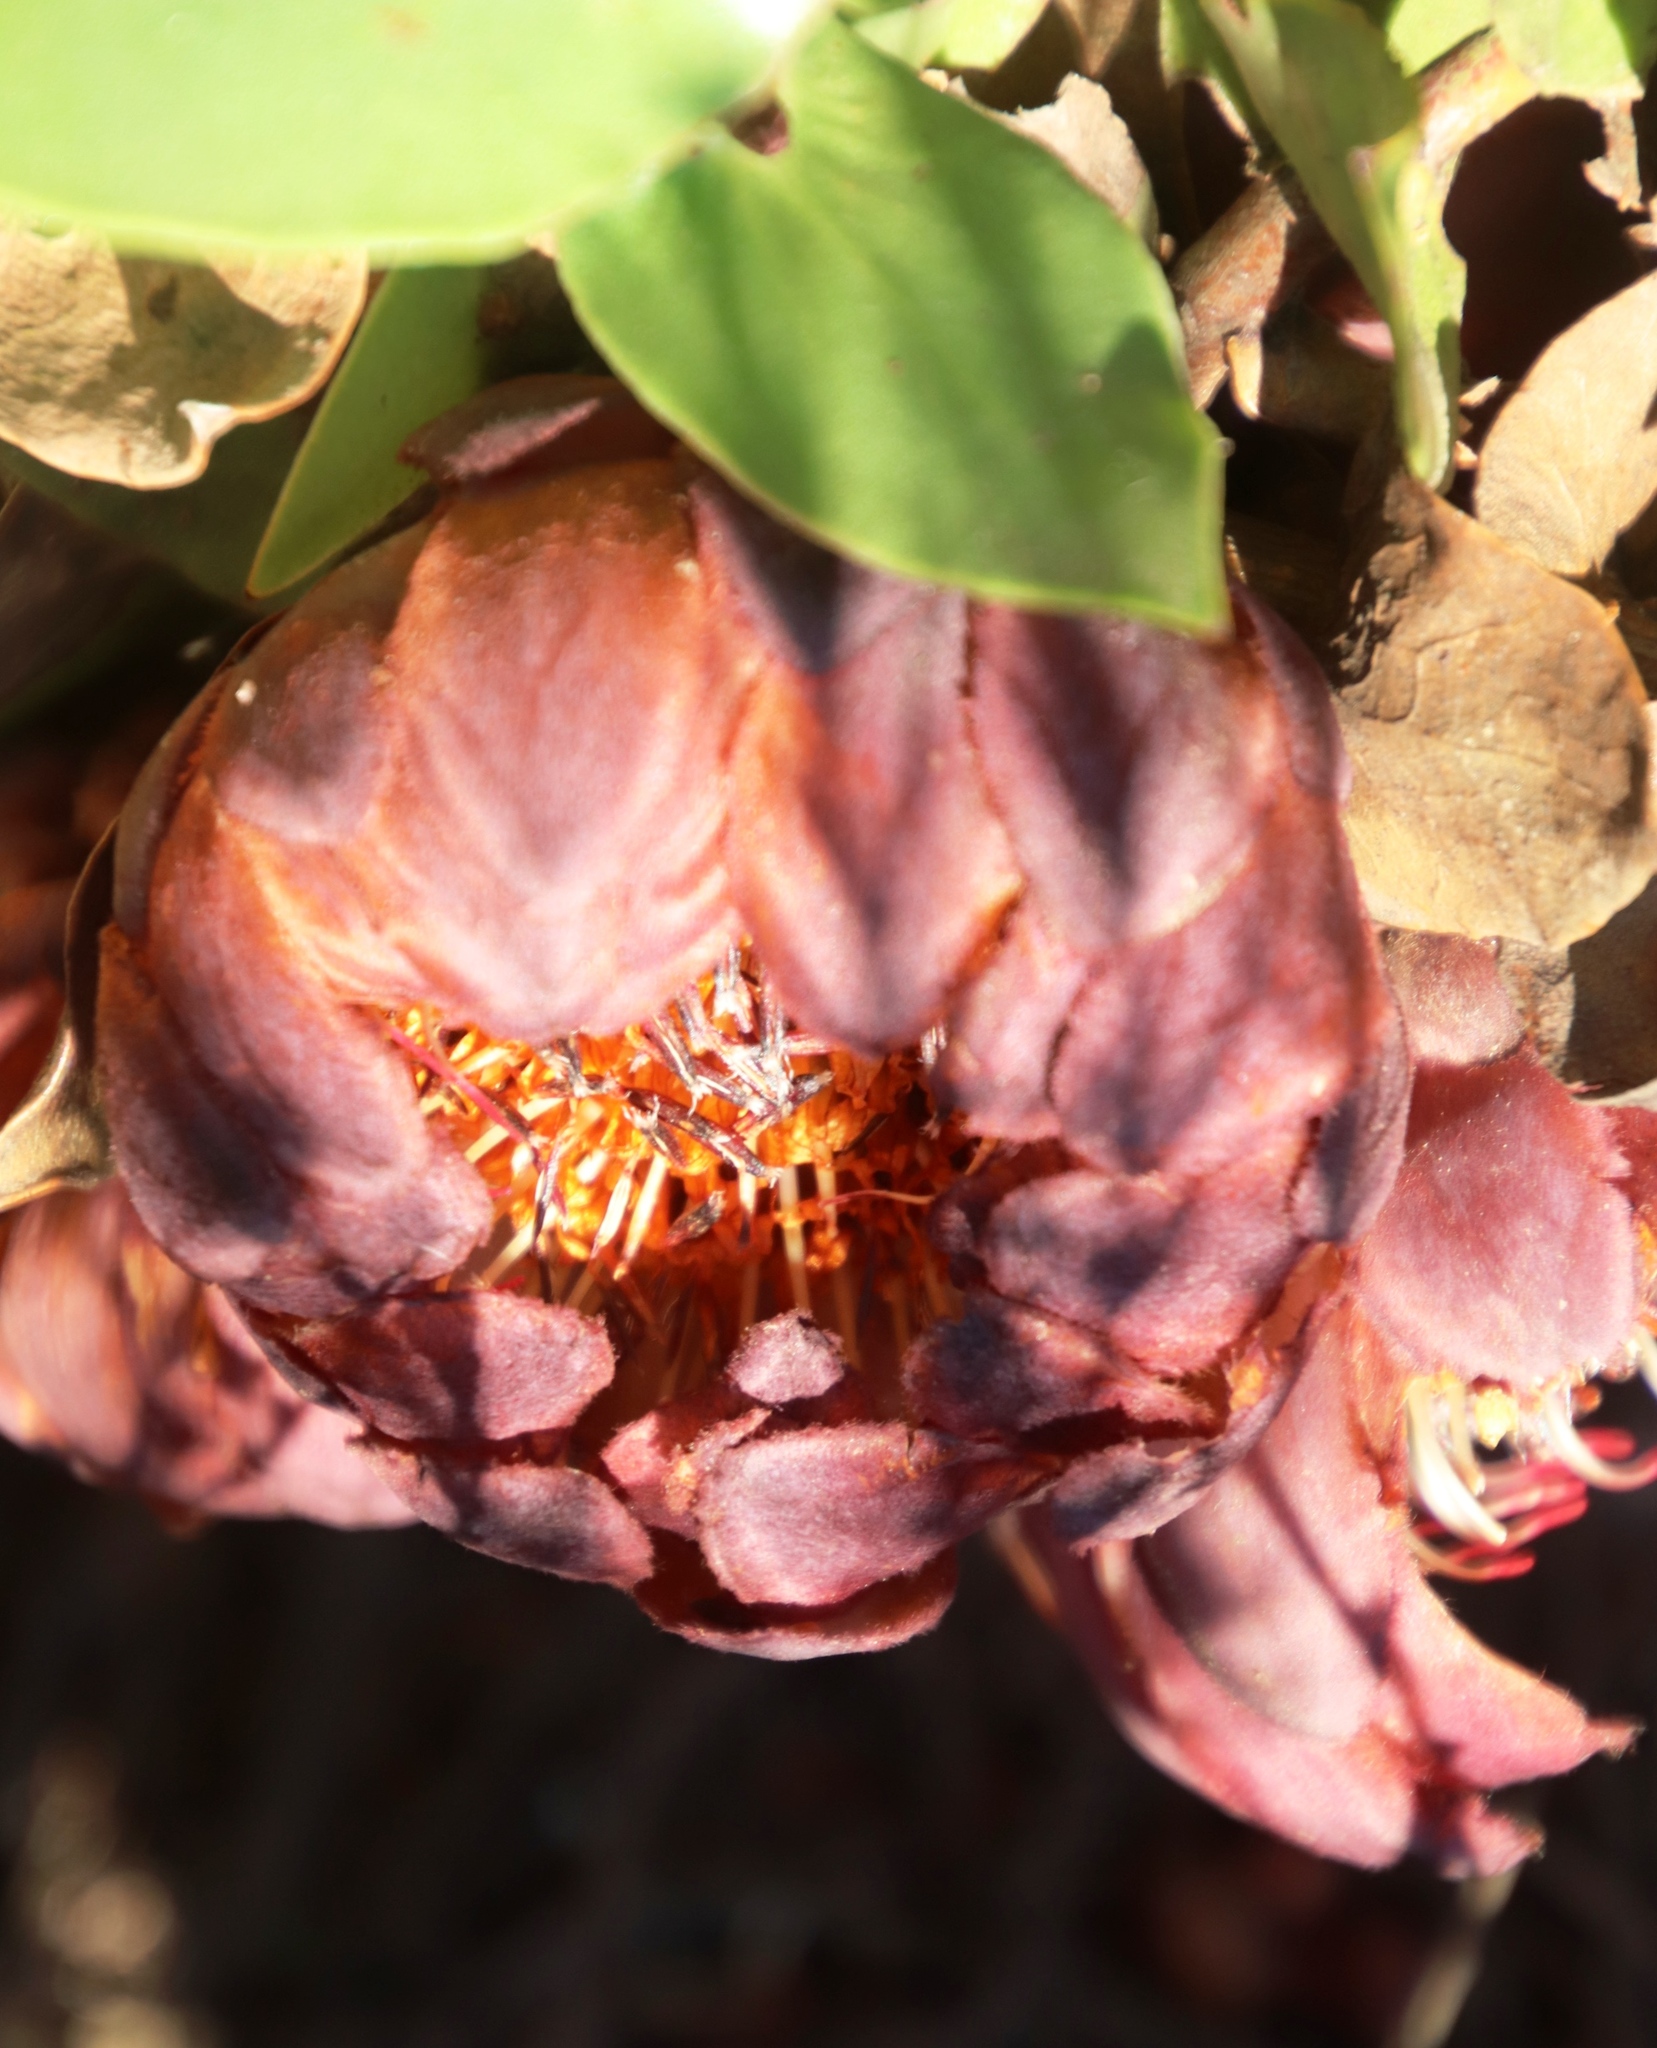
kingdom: Plantae
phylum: Tracheophyta
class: Magnoliopsida
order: Proteales
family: Proteaceae
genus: Protea
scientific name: Protea amplexicaulis
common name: Clasping-leaf sugarbush
